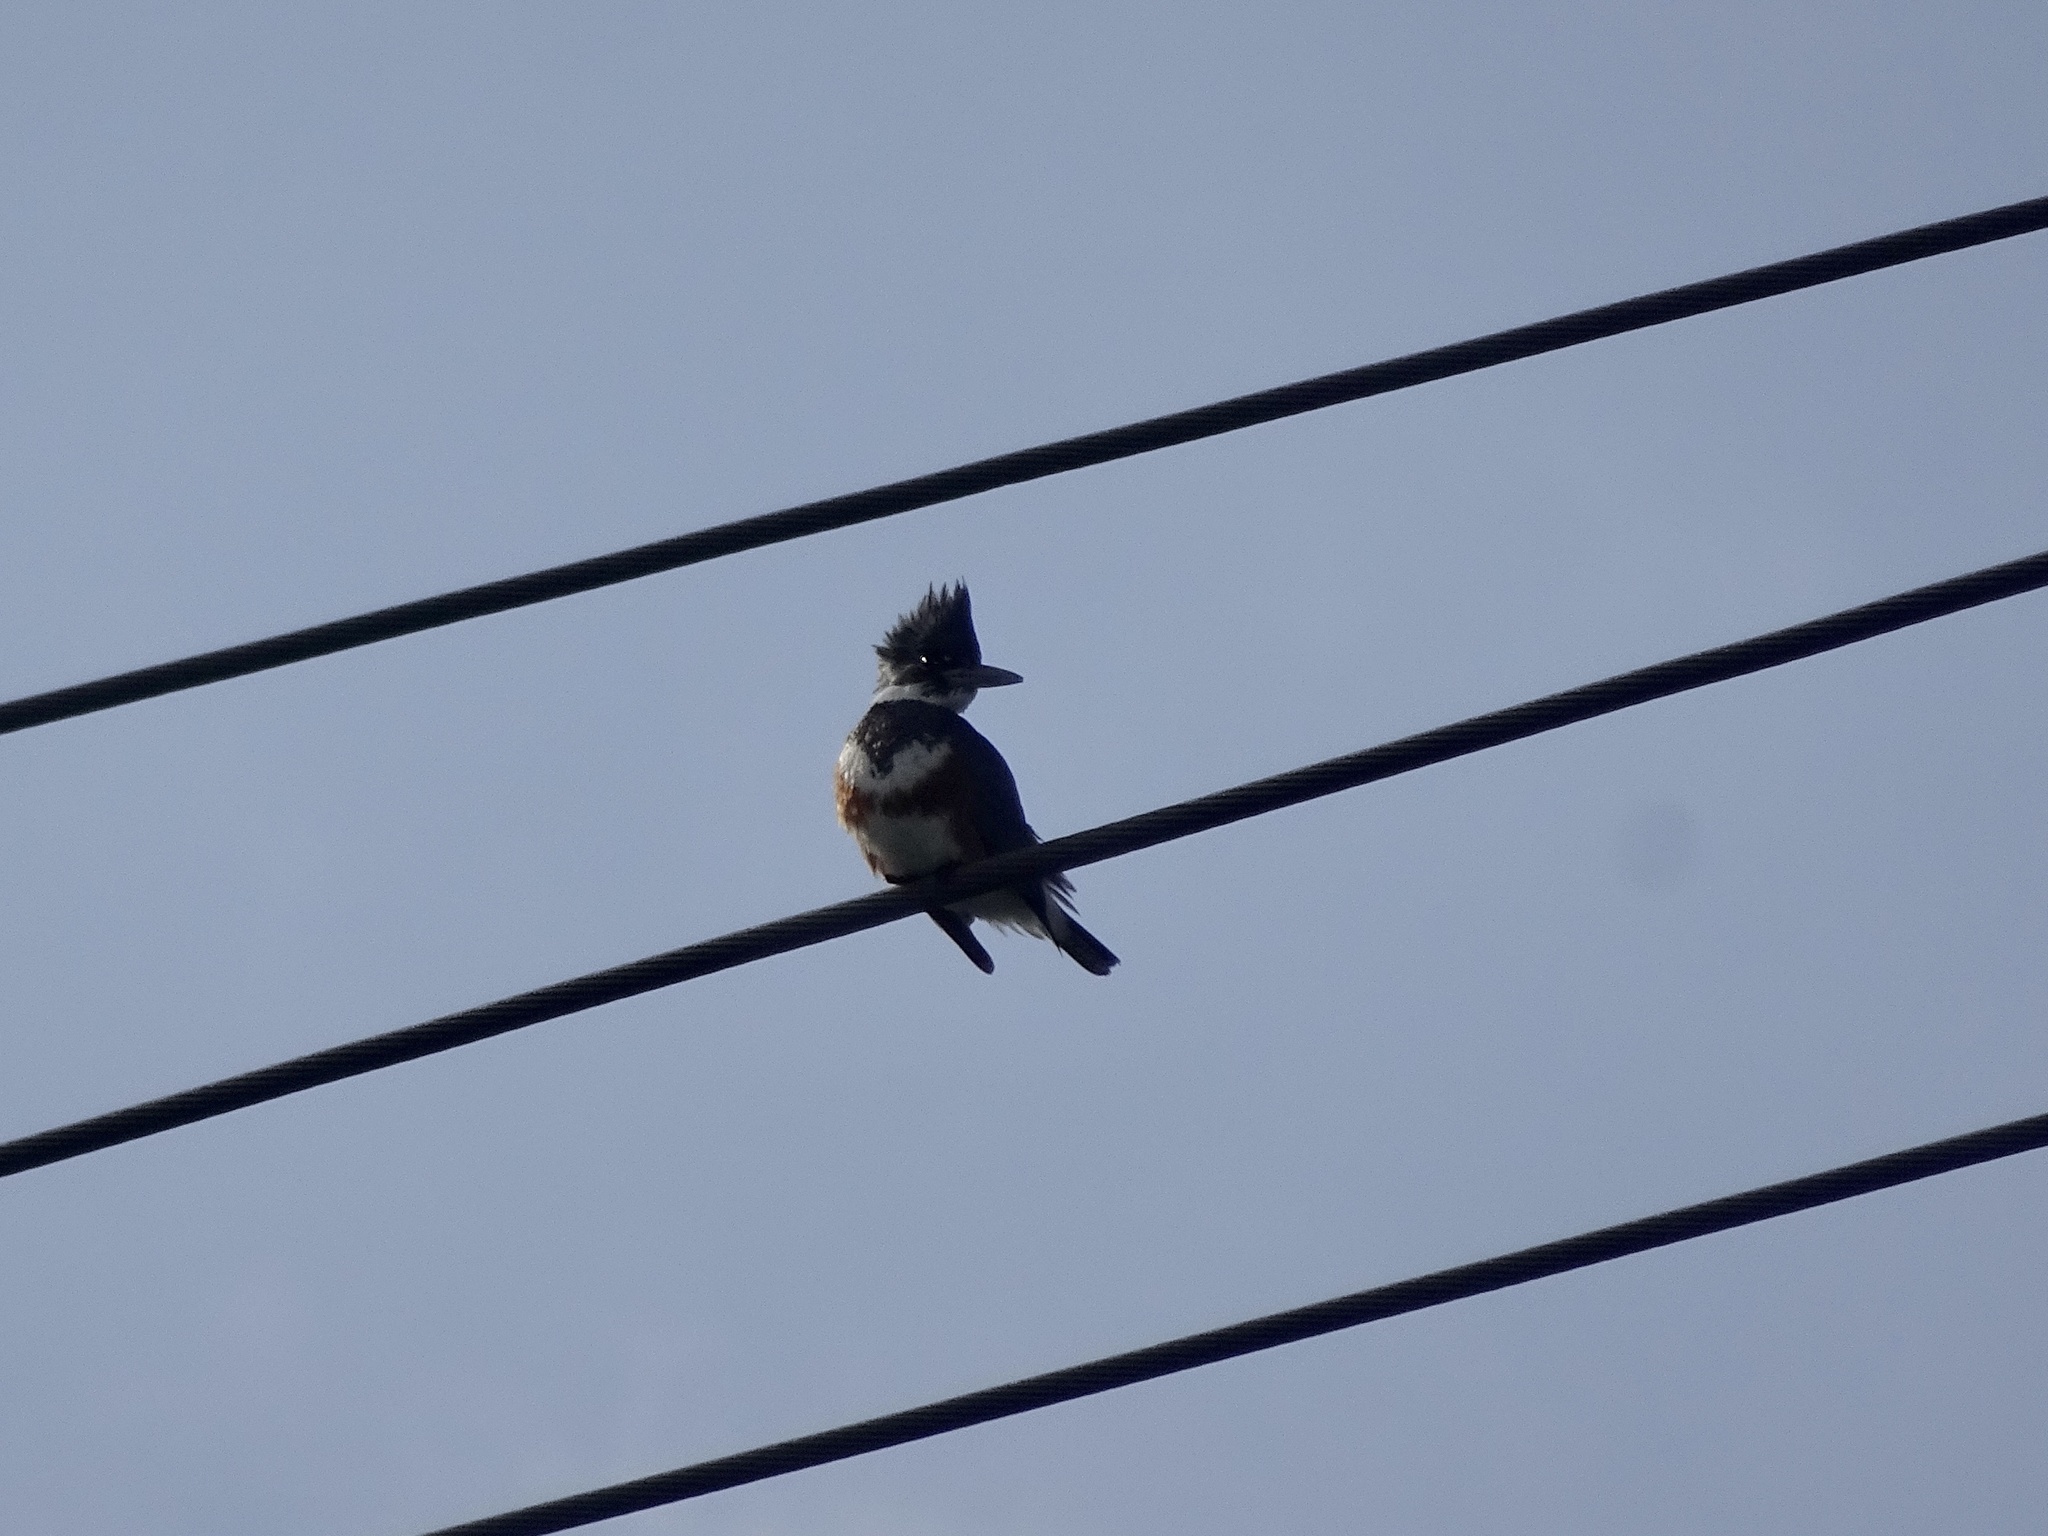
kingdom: Animalia
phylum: Chordata
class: Aves
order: Coraciiformes
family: Alcedinidae
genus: Megaceryle
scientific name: Megaceryle alcyon
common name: Belted kingfisher
